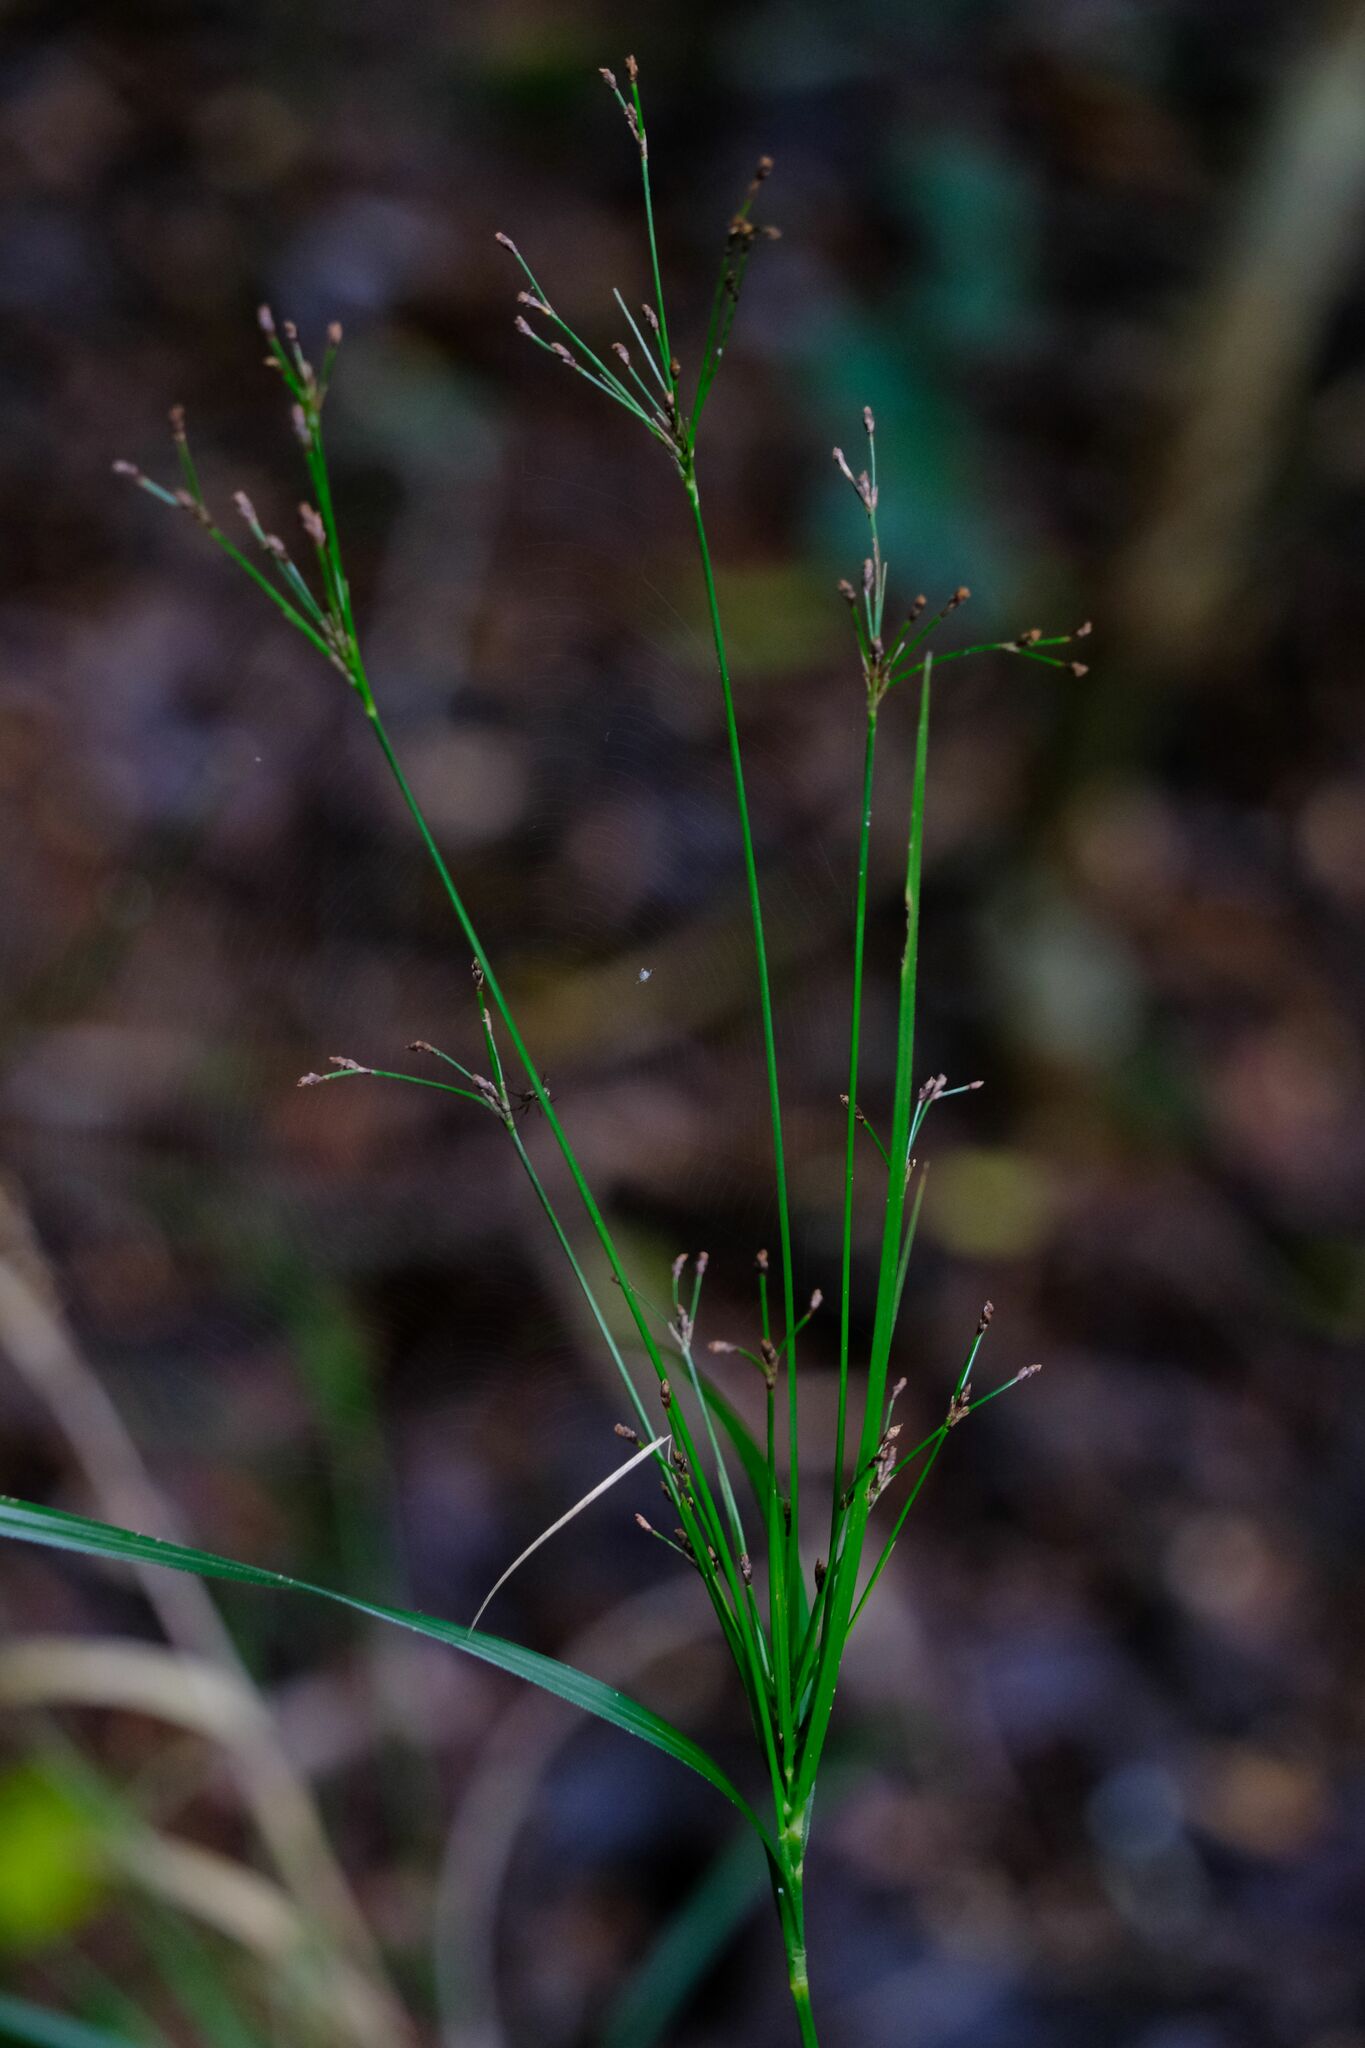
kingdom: Plantae
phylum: Tracheophyta
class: Liliopsida
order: Poales
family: Cyperaceae
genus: Exocarya
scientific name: Exocarya sclerioides
